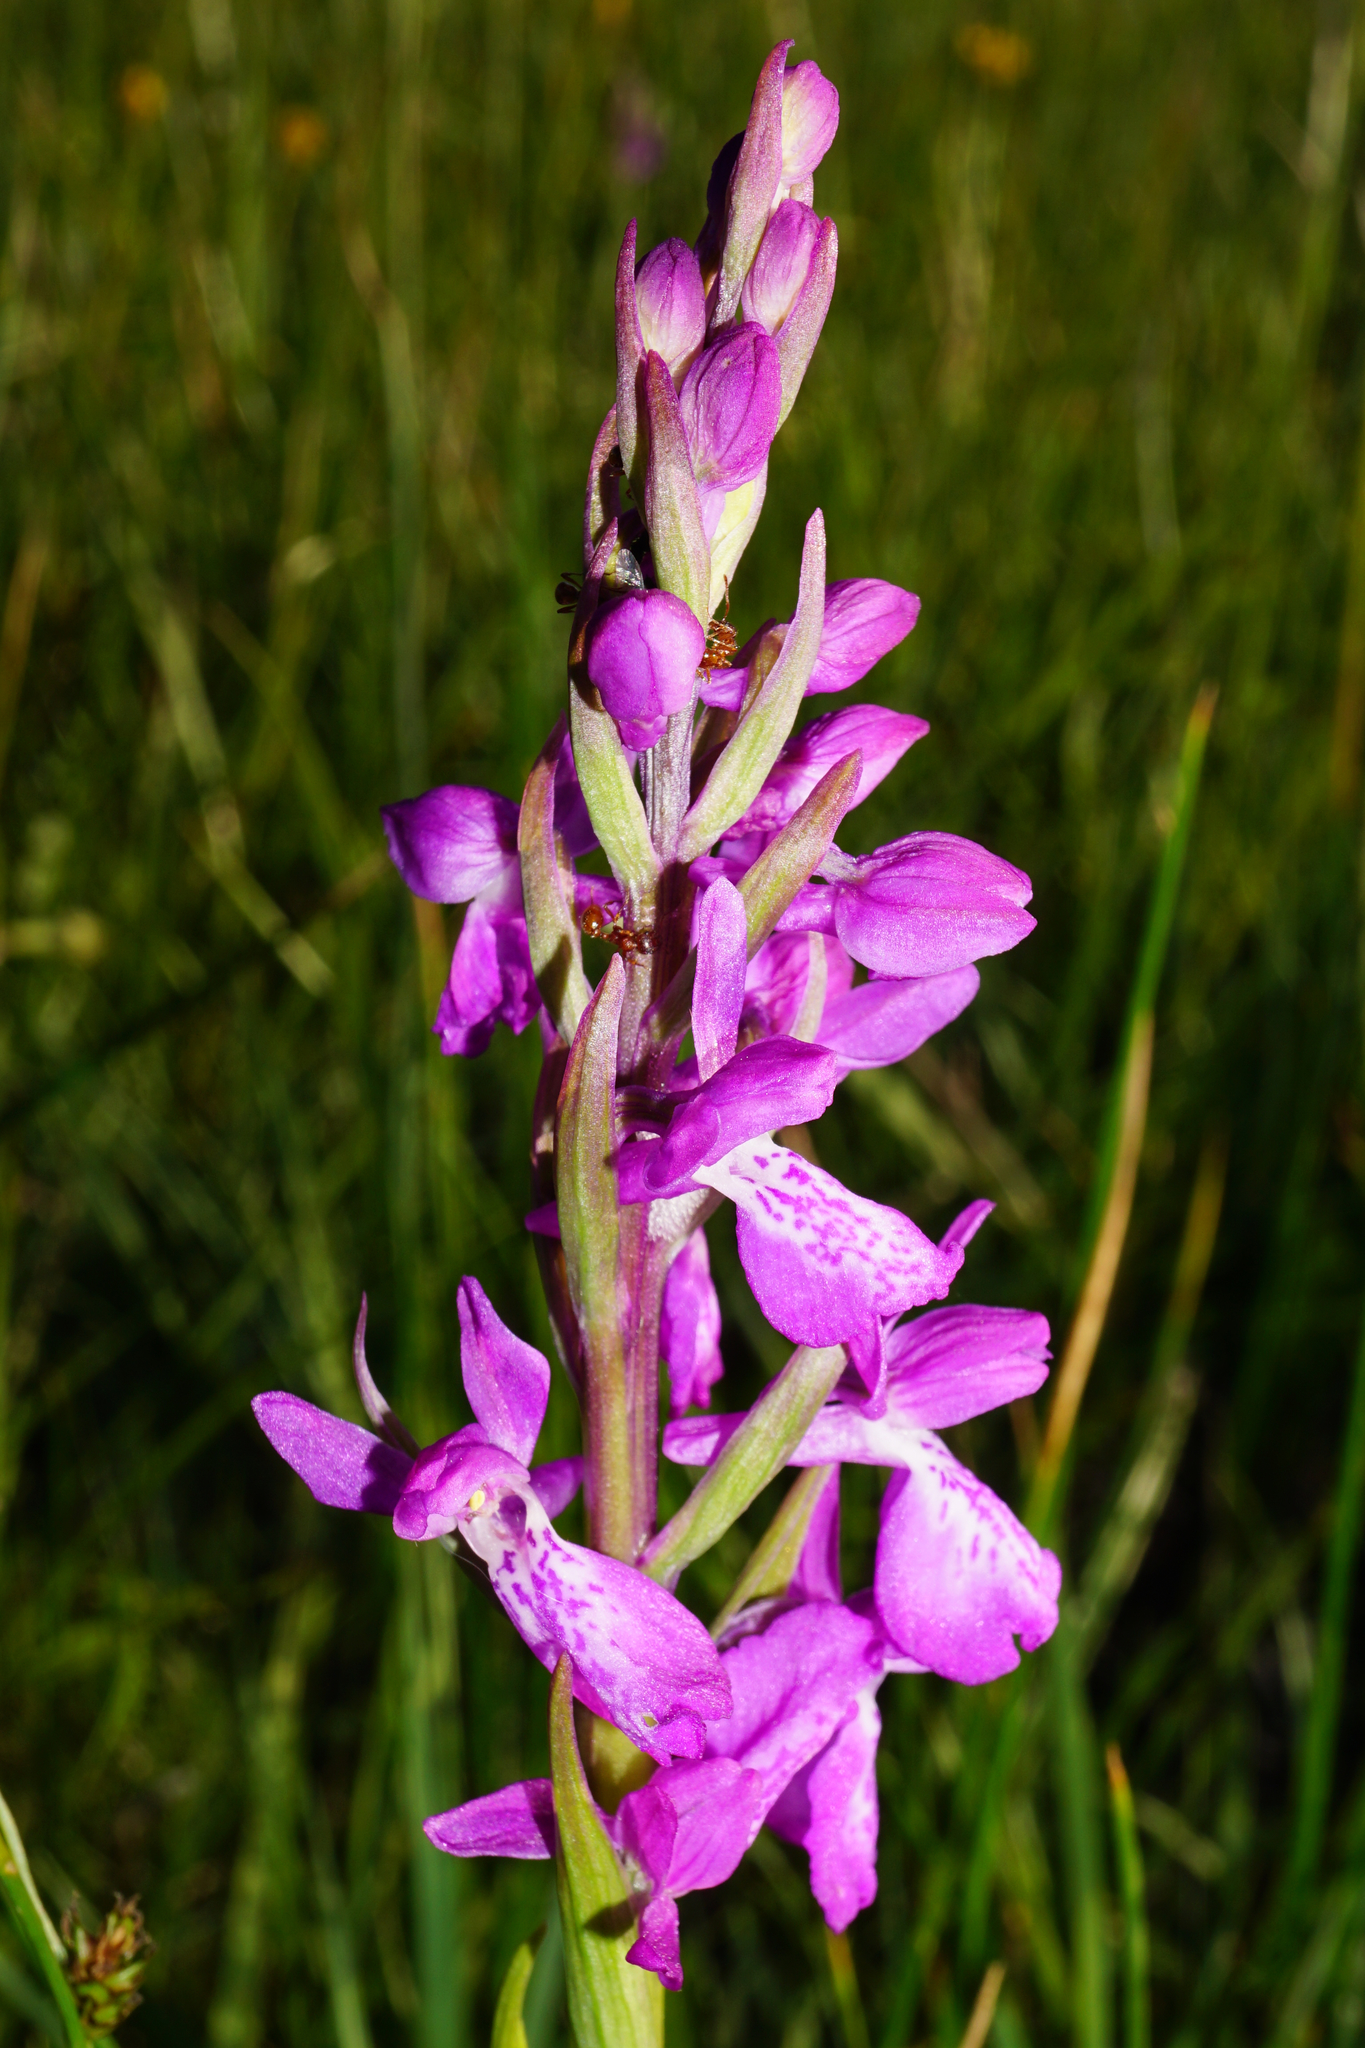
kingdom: Plantae
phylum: Tracheophyta
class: Liliopsida
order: Asparagales
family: Orchidaceae
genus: Anacamptis
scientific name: Anacamptis palustris
